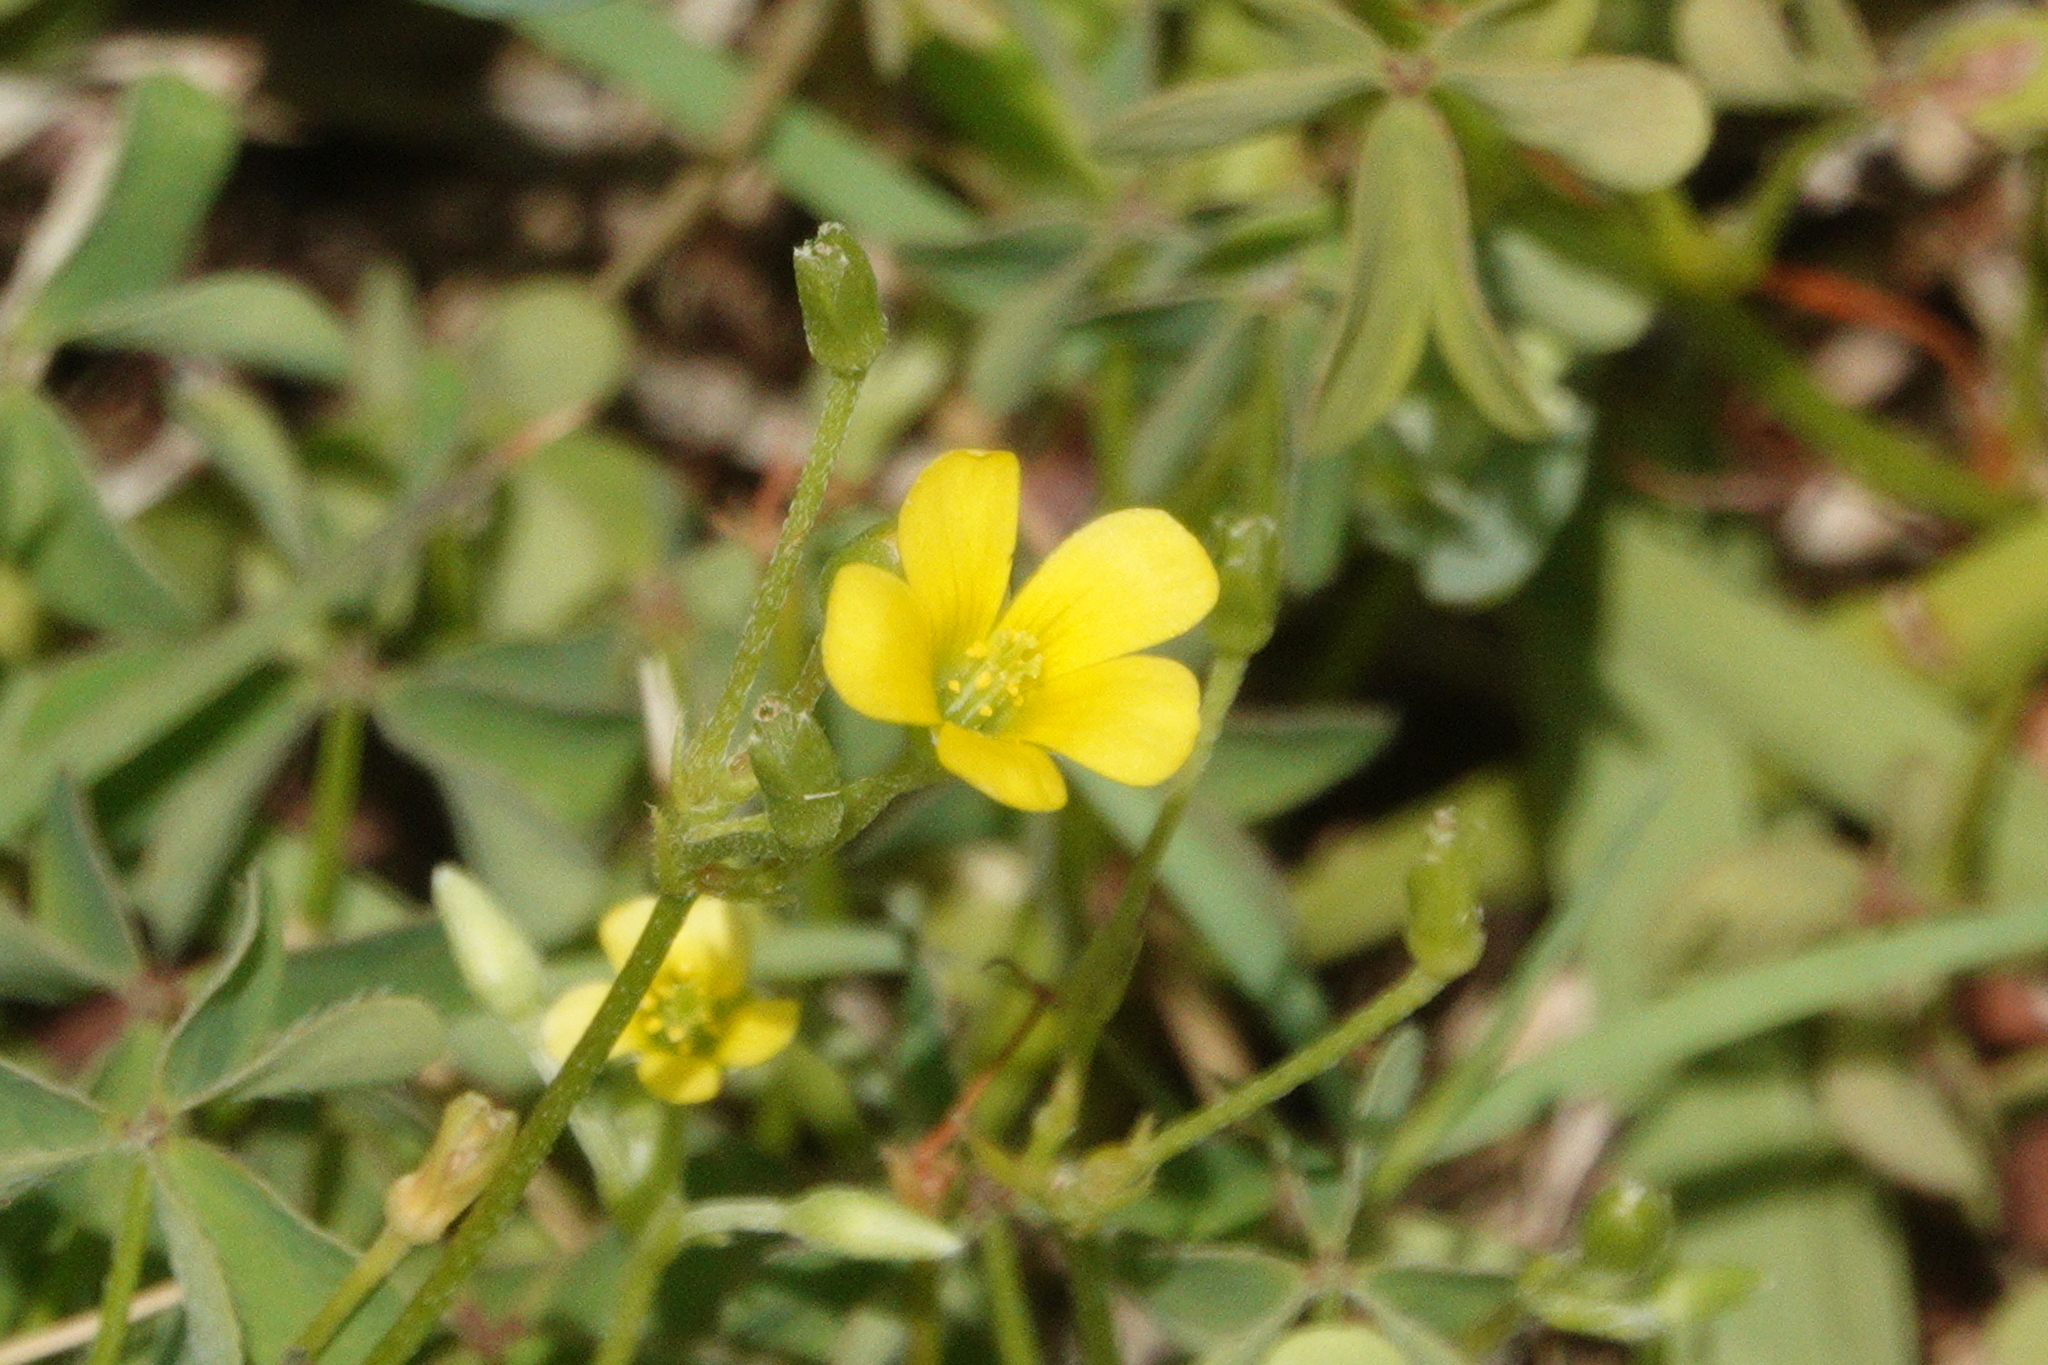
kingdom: Plantae
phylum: Tracheophyta
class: Magnoliopsida
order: Oxalidales
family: Oxalidaceae
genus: Oxalis
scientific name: Oxalis dillenii
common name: Sussex yellow-sorrel
